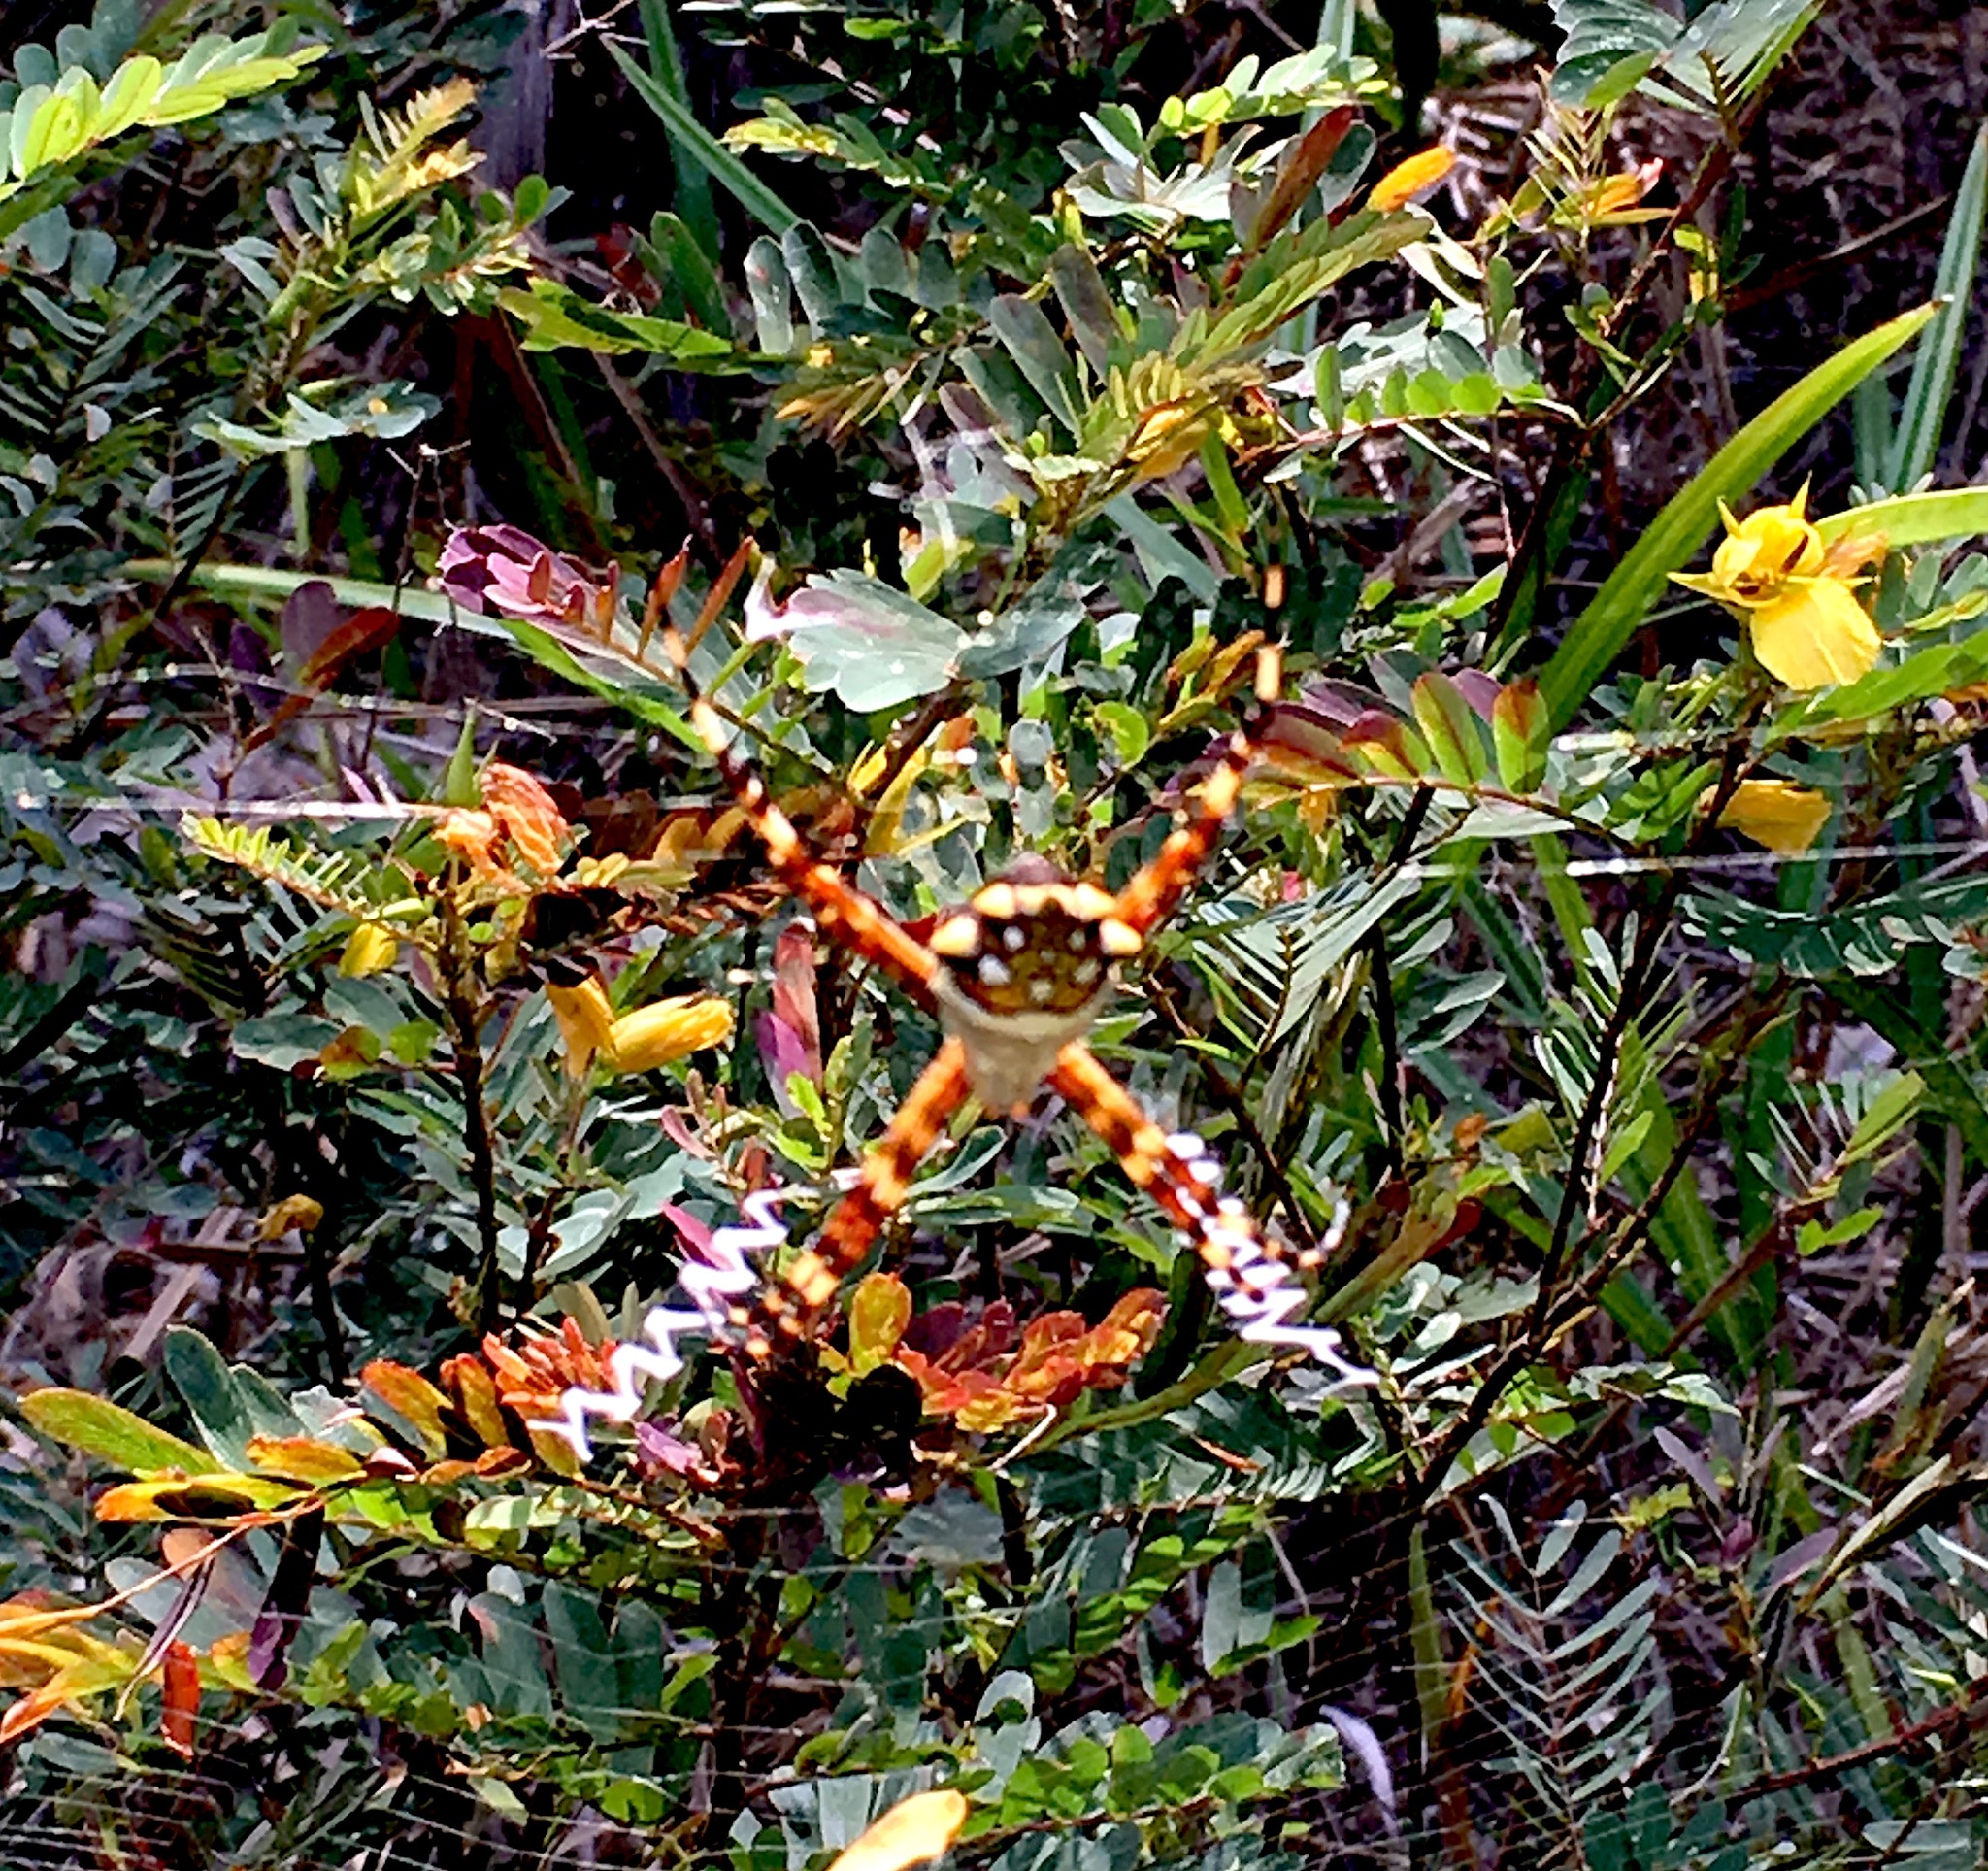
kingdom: Animalia
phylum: Arthropoda
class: Arachnida
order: Araneae
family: Araneidae
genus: Argiope
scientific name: Argiope argentata
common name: Orb weavers
